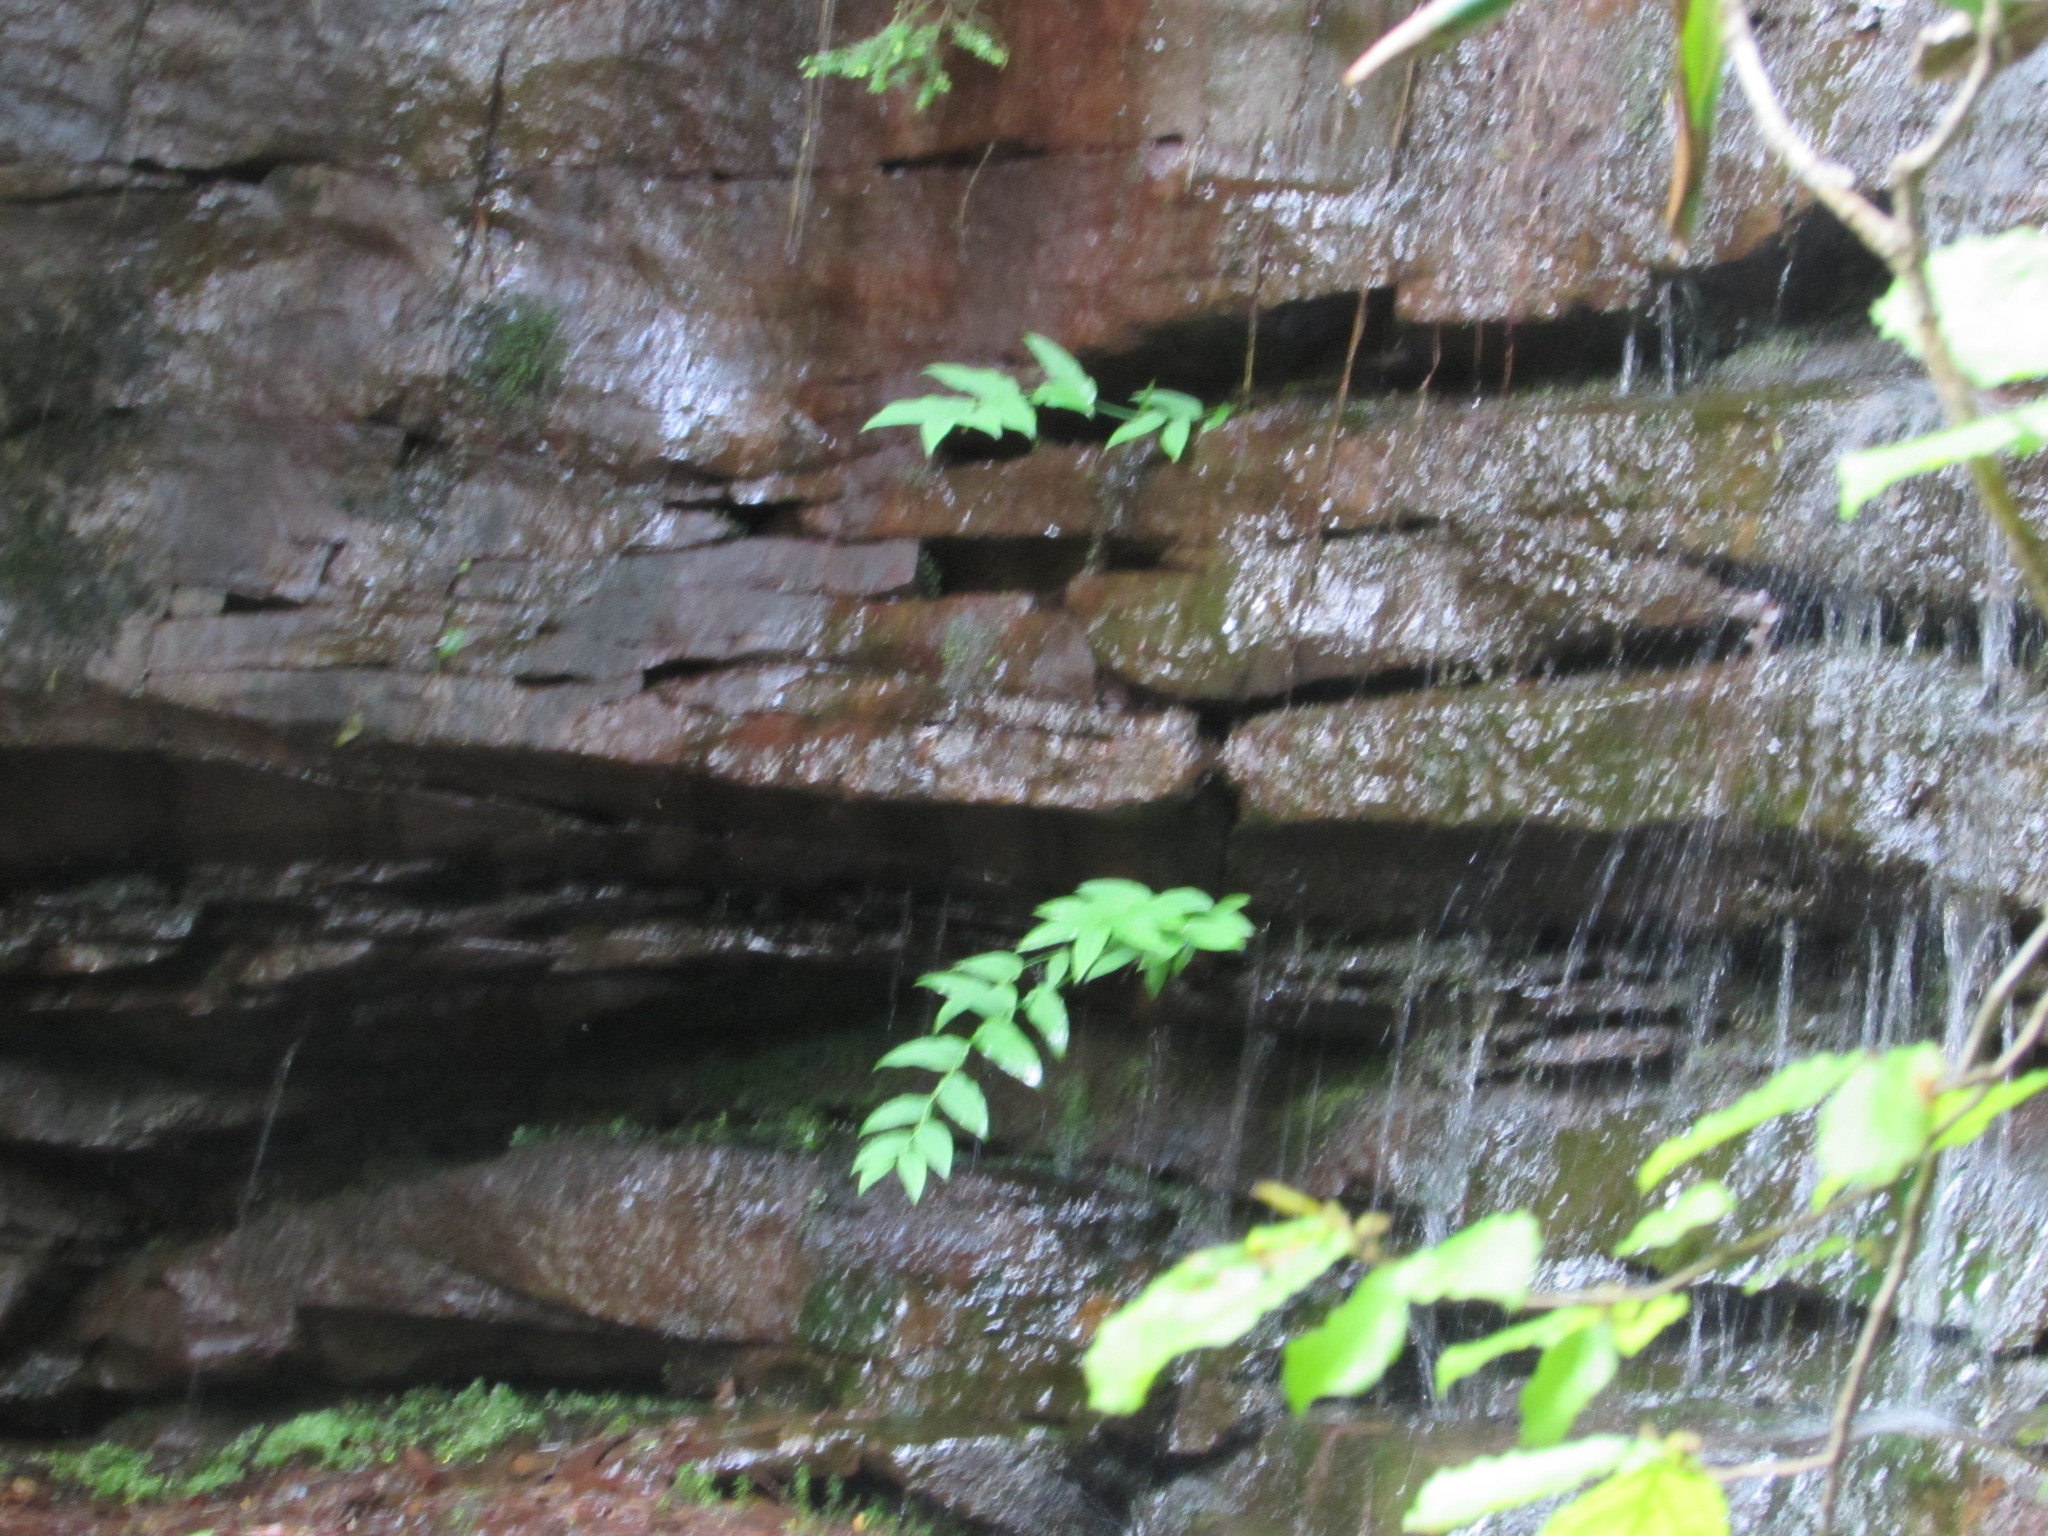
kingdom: Plantae
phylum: Tracheophyta
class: Liliopsida
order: Liliales
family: Liliaceae
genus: Streptopus
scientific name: Streptopus amplexifolius
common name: Clasp twisted stalk
